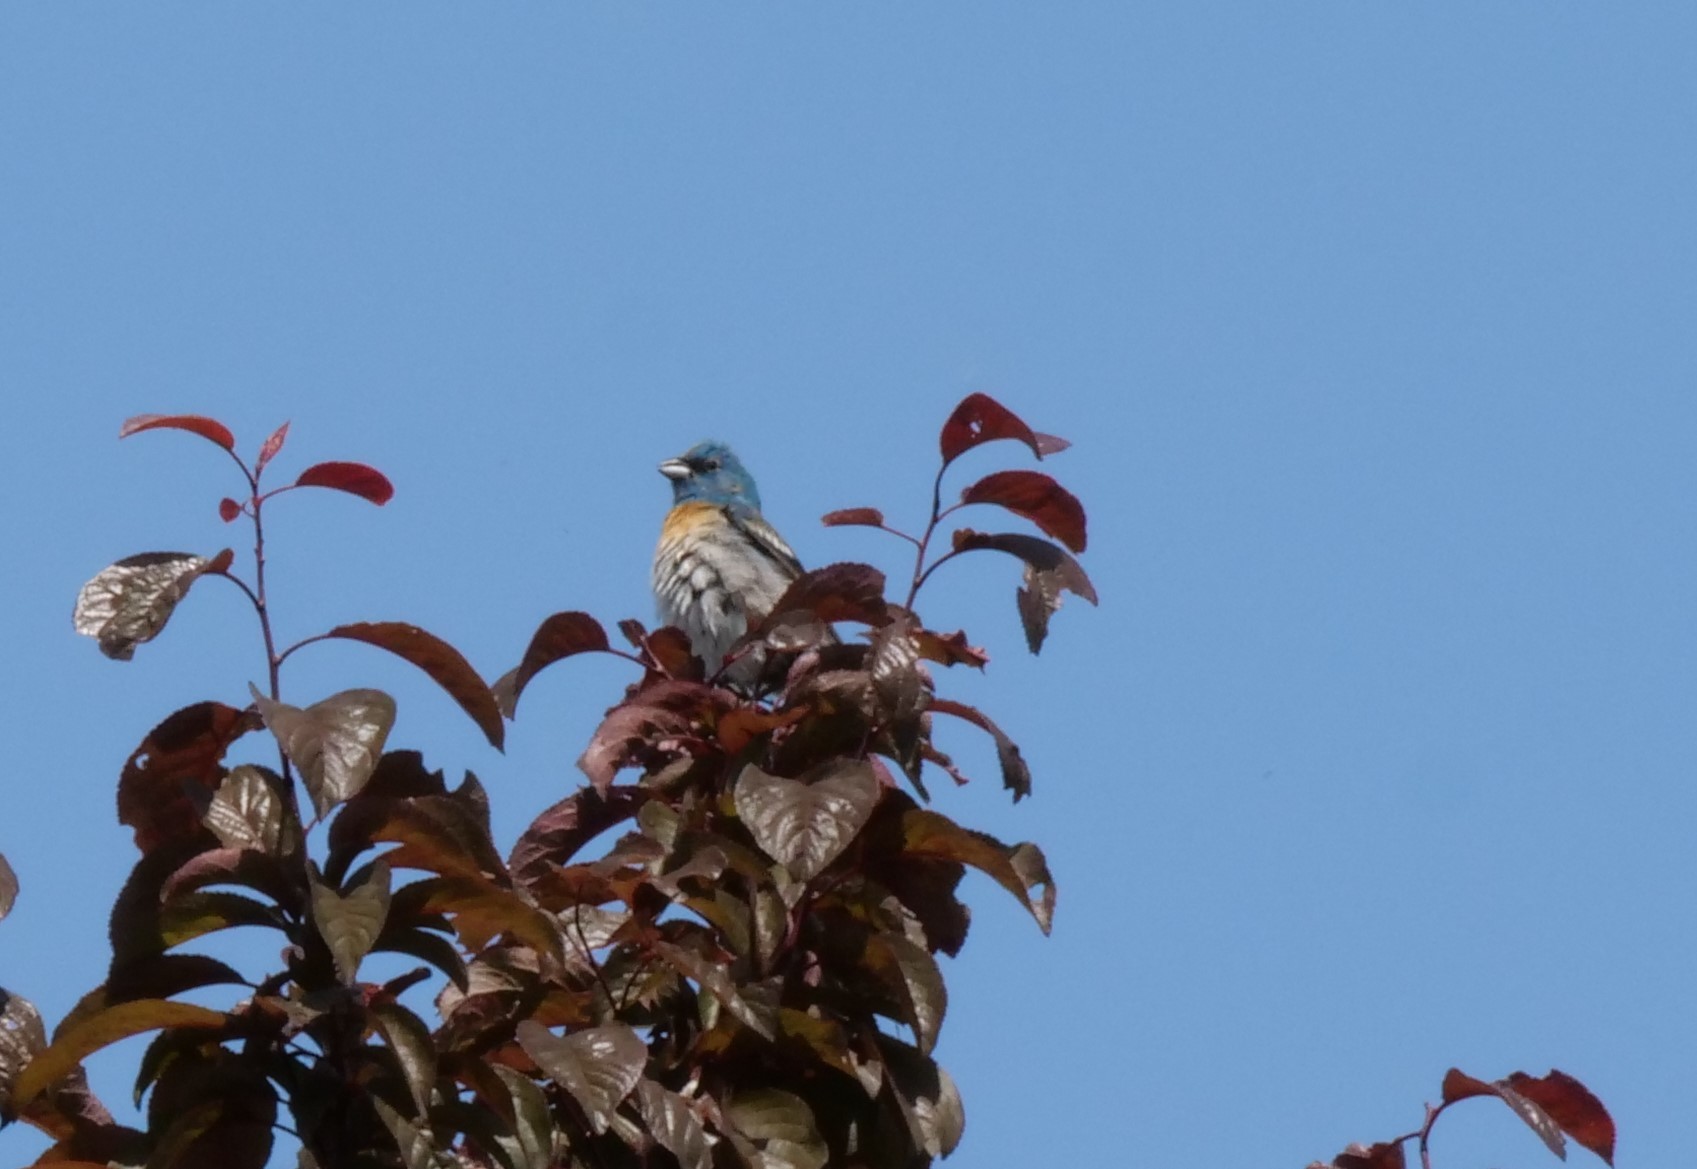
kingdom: Animalia
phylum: Chordata
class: Aves
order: Passeriformes
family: Cardinalidae
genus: Passerina
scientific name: Passerina amoena
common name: Lazuli bunting
